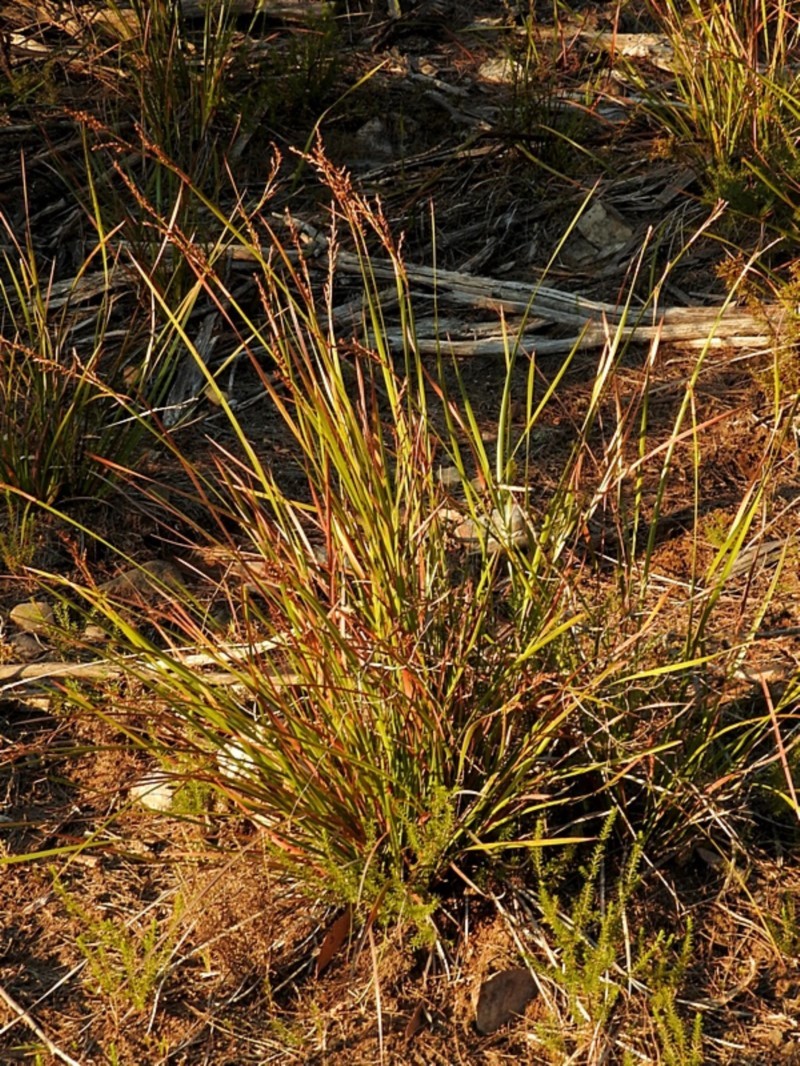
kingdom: Plantae
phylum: Tracheophyta
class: Liliopsida
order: Poales
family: Cyperaceae
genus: Lepidosperma
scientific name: Lepidosperma laterale
